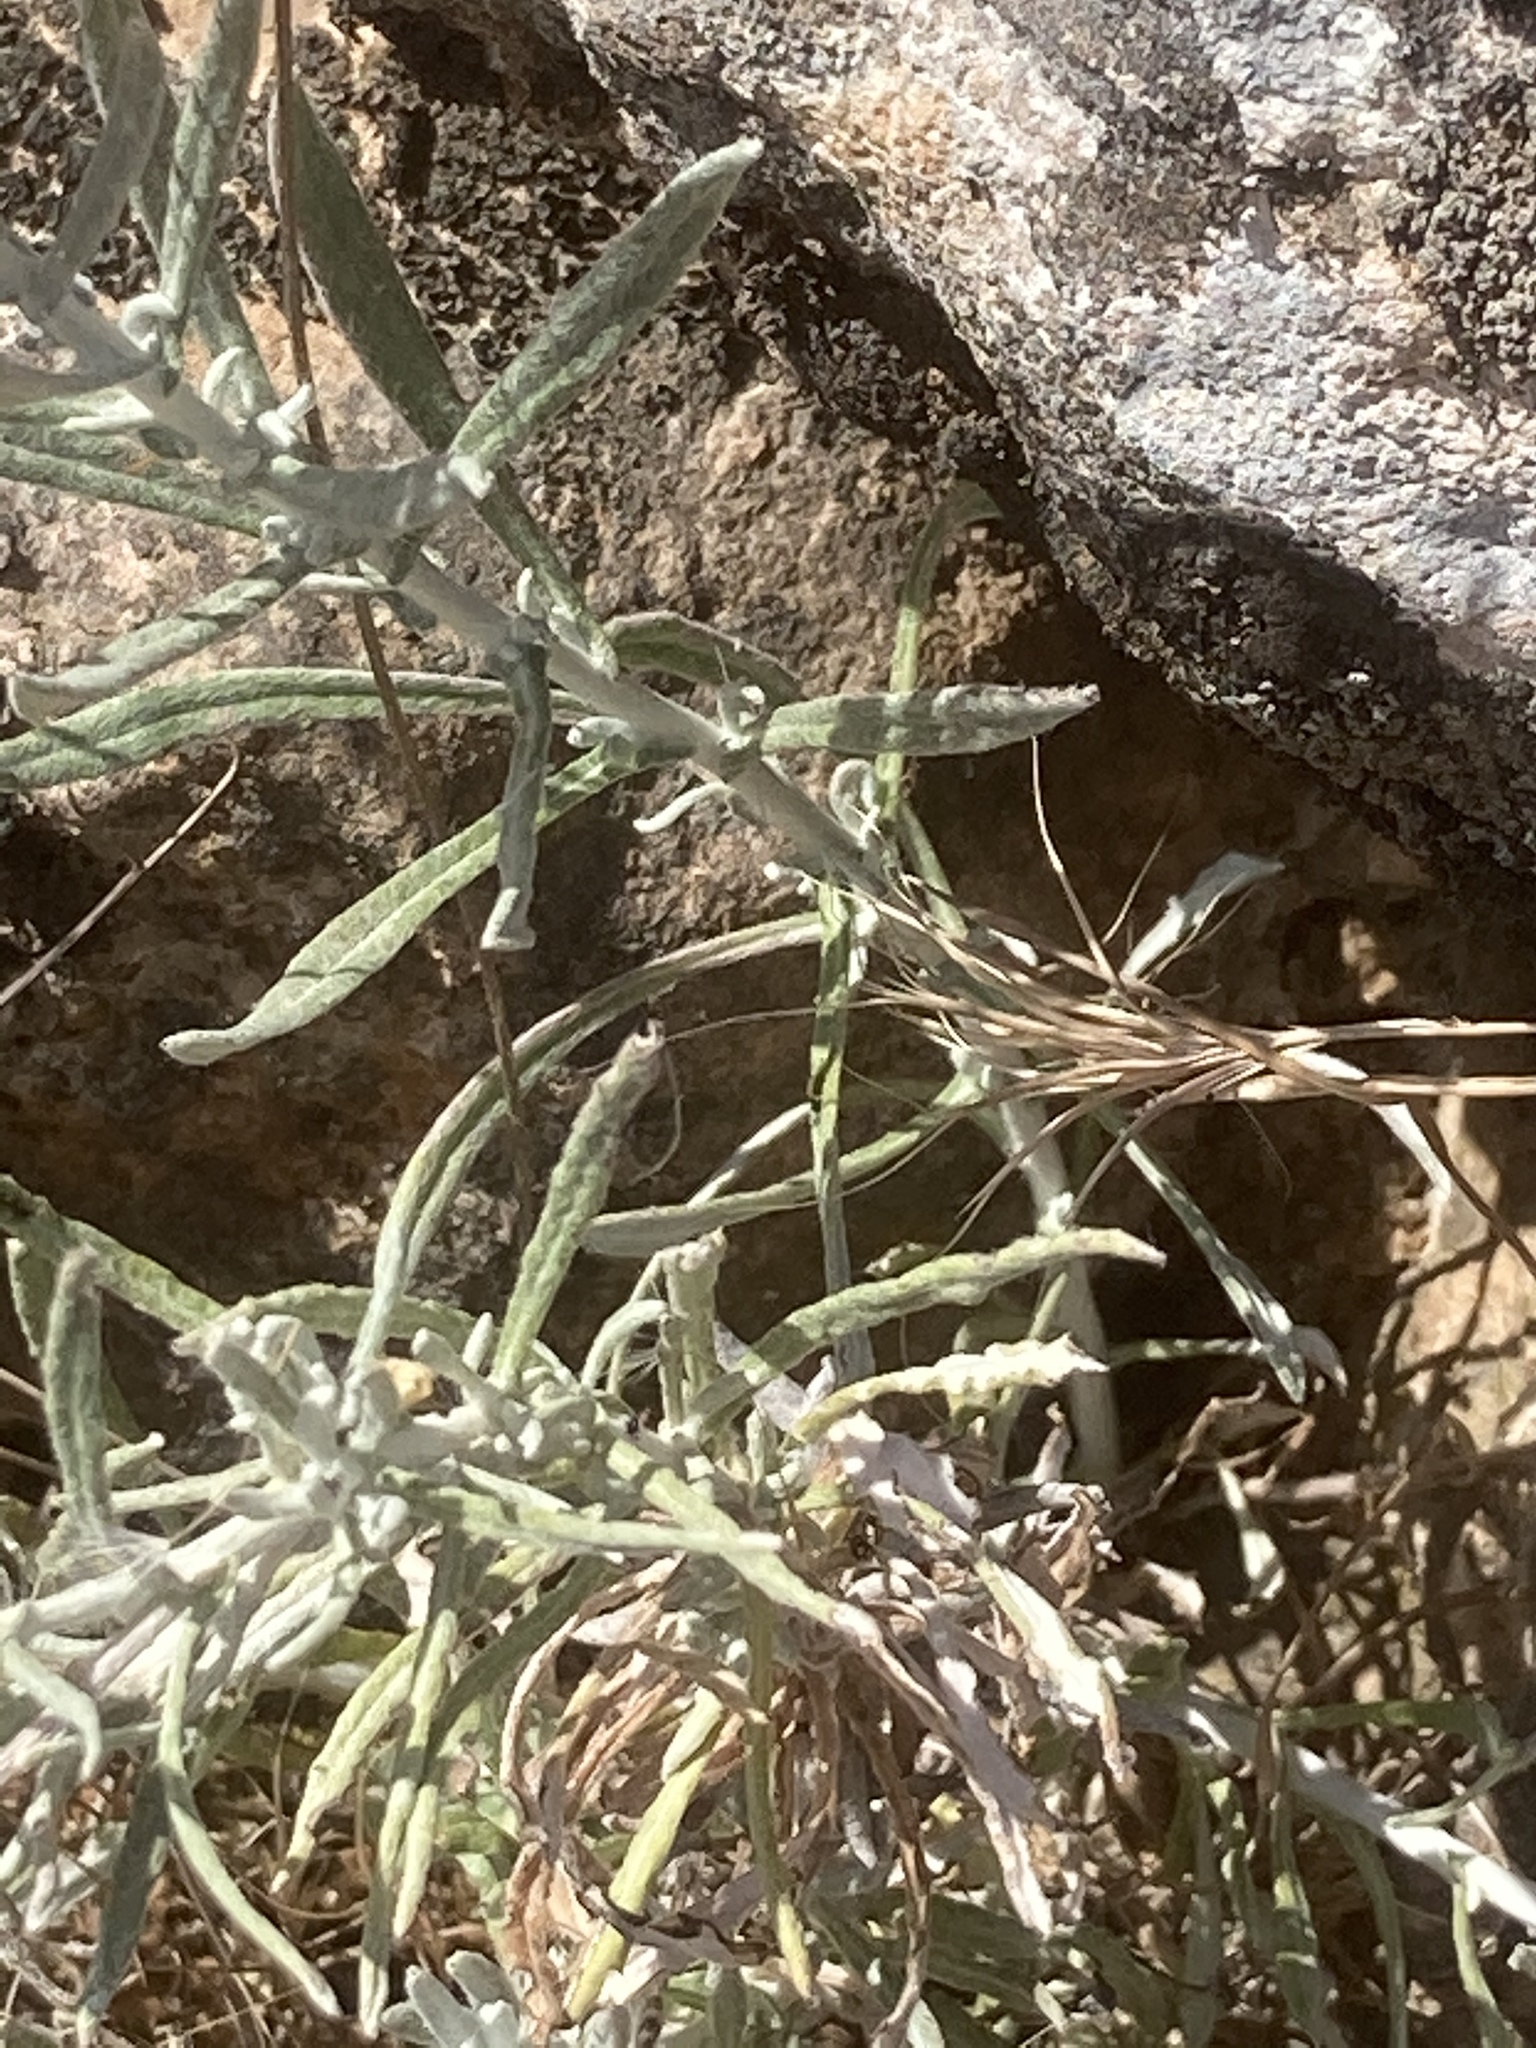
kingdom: Plantae
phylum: Tracheophyta
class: Magnoliopsida
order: Asterales
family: Asteraceae
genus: Phagnalon
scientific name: Phagnalon
